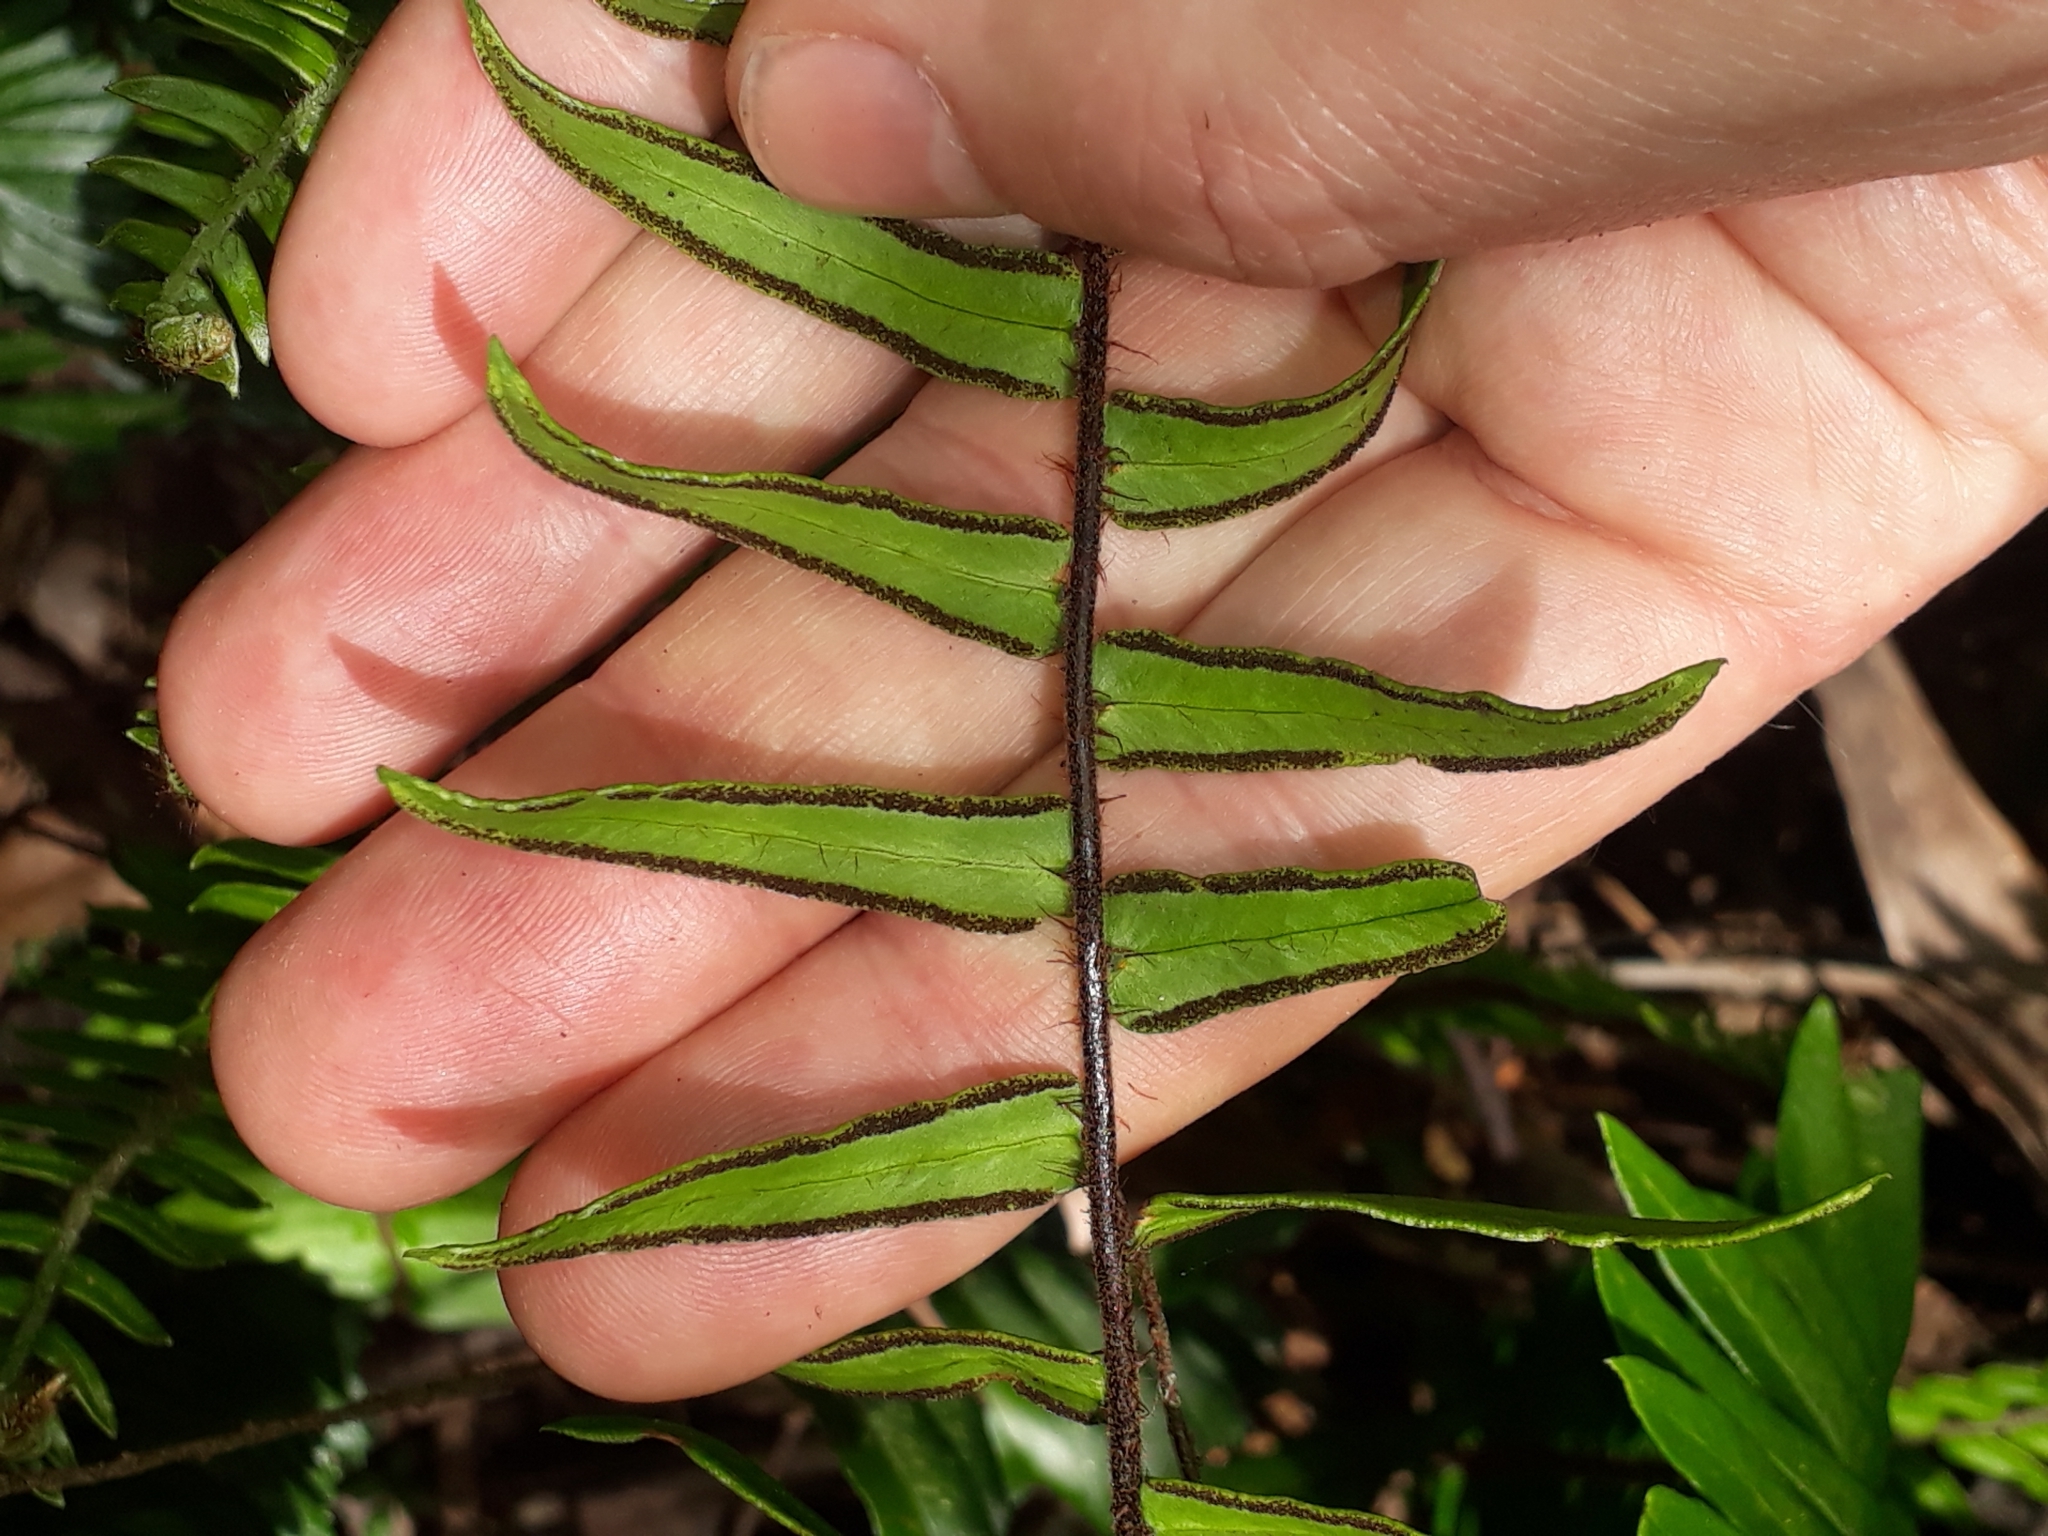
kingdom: Plantae
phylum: Tracheophyta
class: Polypodiopsida
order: Polypodiales
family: Pteridaceae
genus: Pellaea
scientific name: Pellaea falcata
